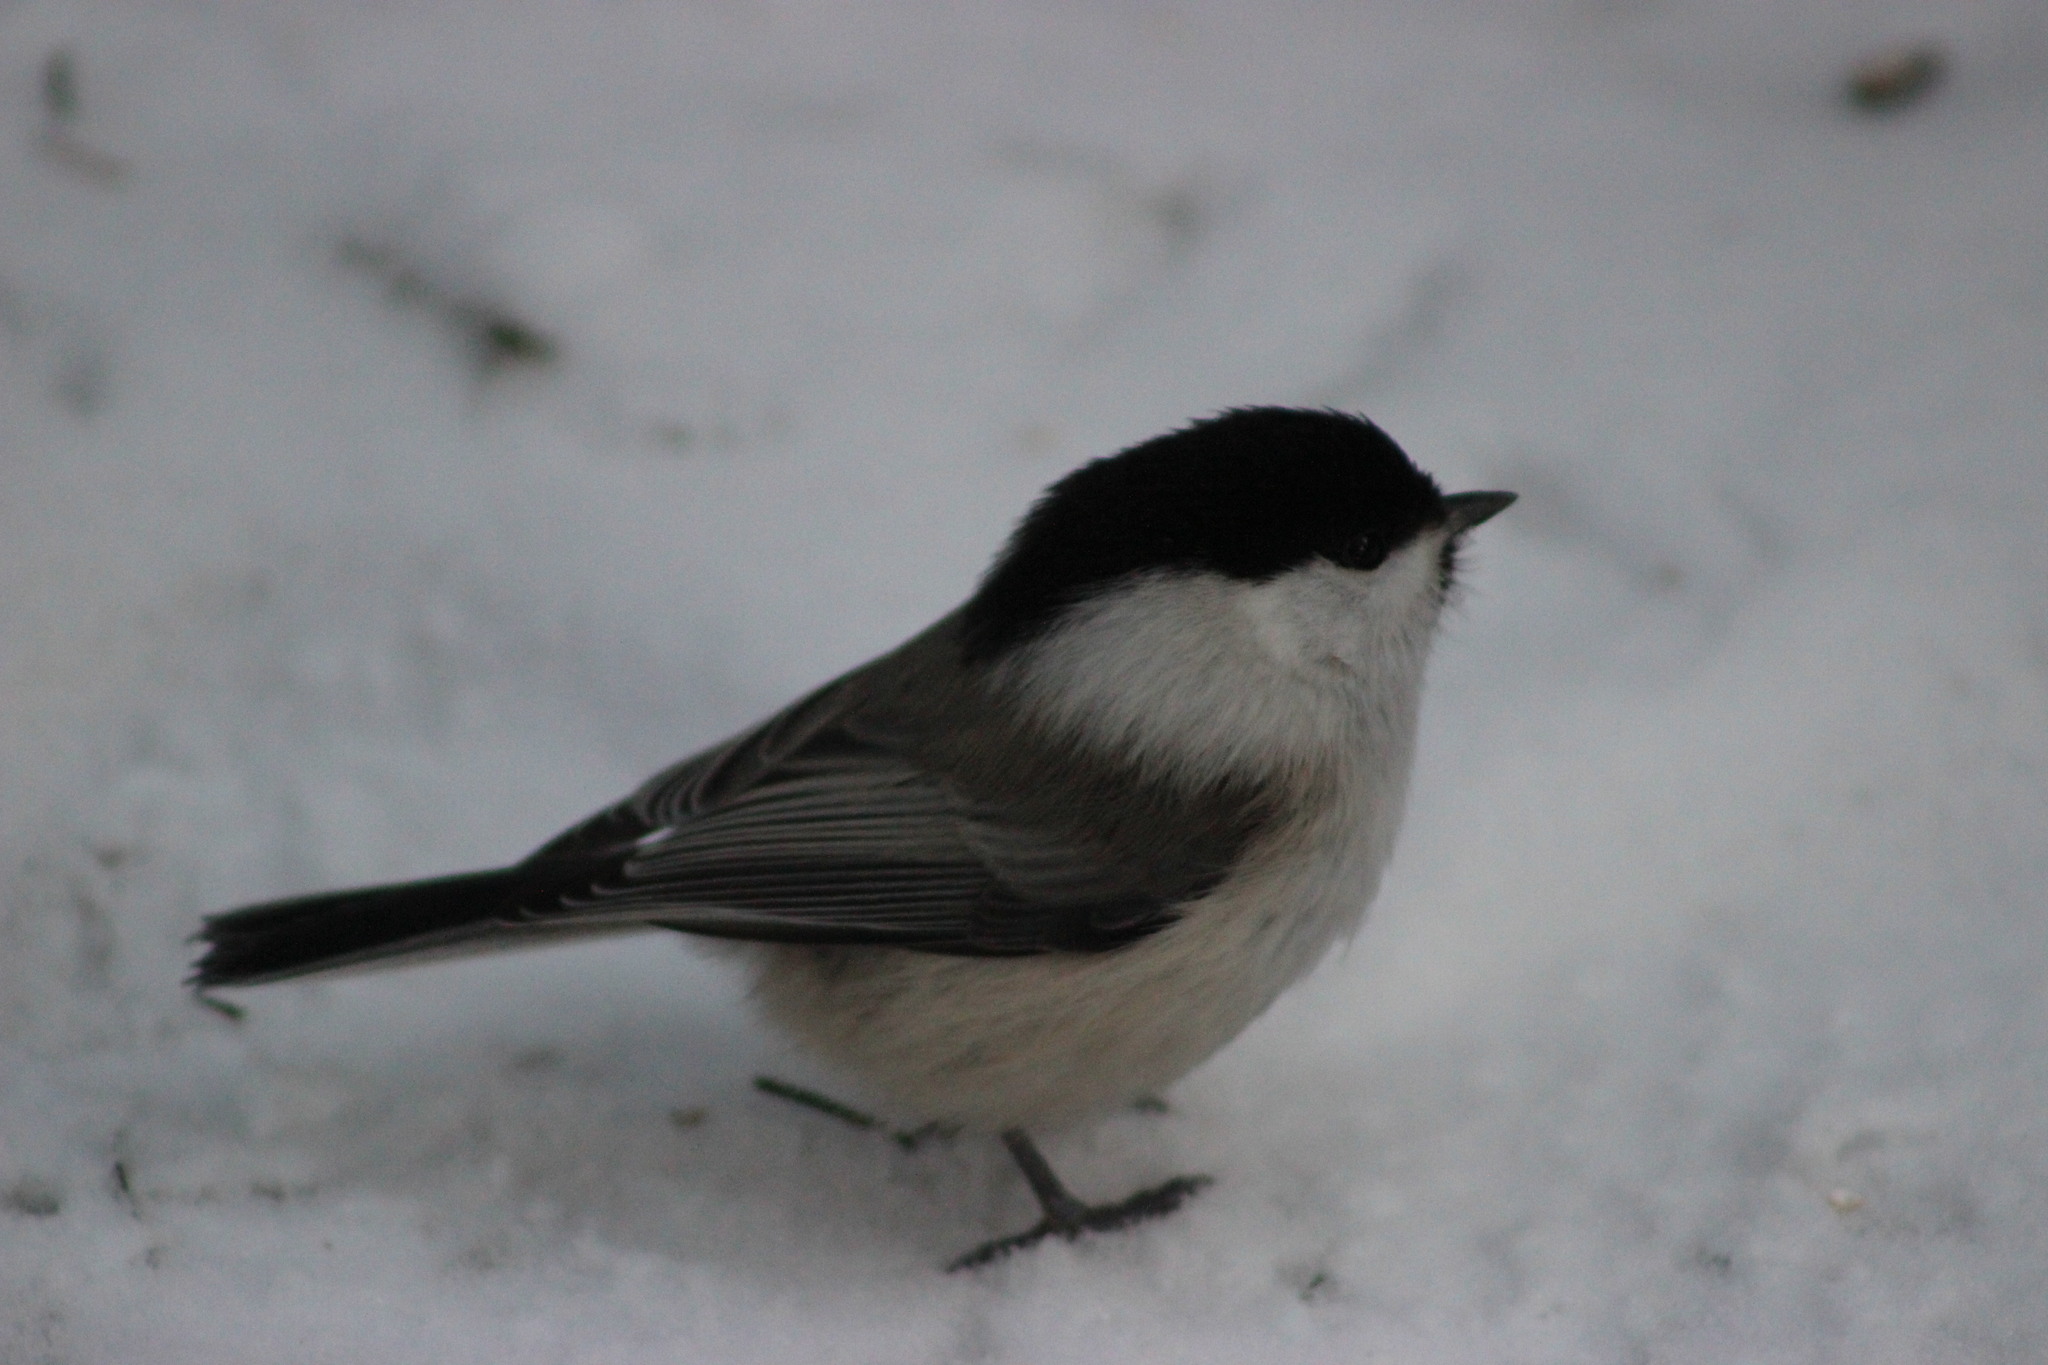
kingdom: Animalia
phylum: Chordata
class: Aves
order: Passeriformes
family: Paridae
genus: Poecile
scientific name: Poecile montanus
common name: Willow tit
